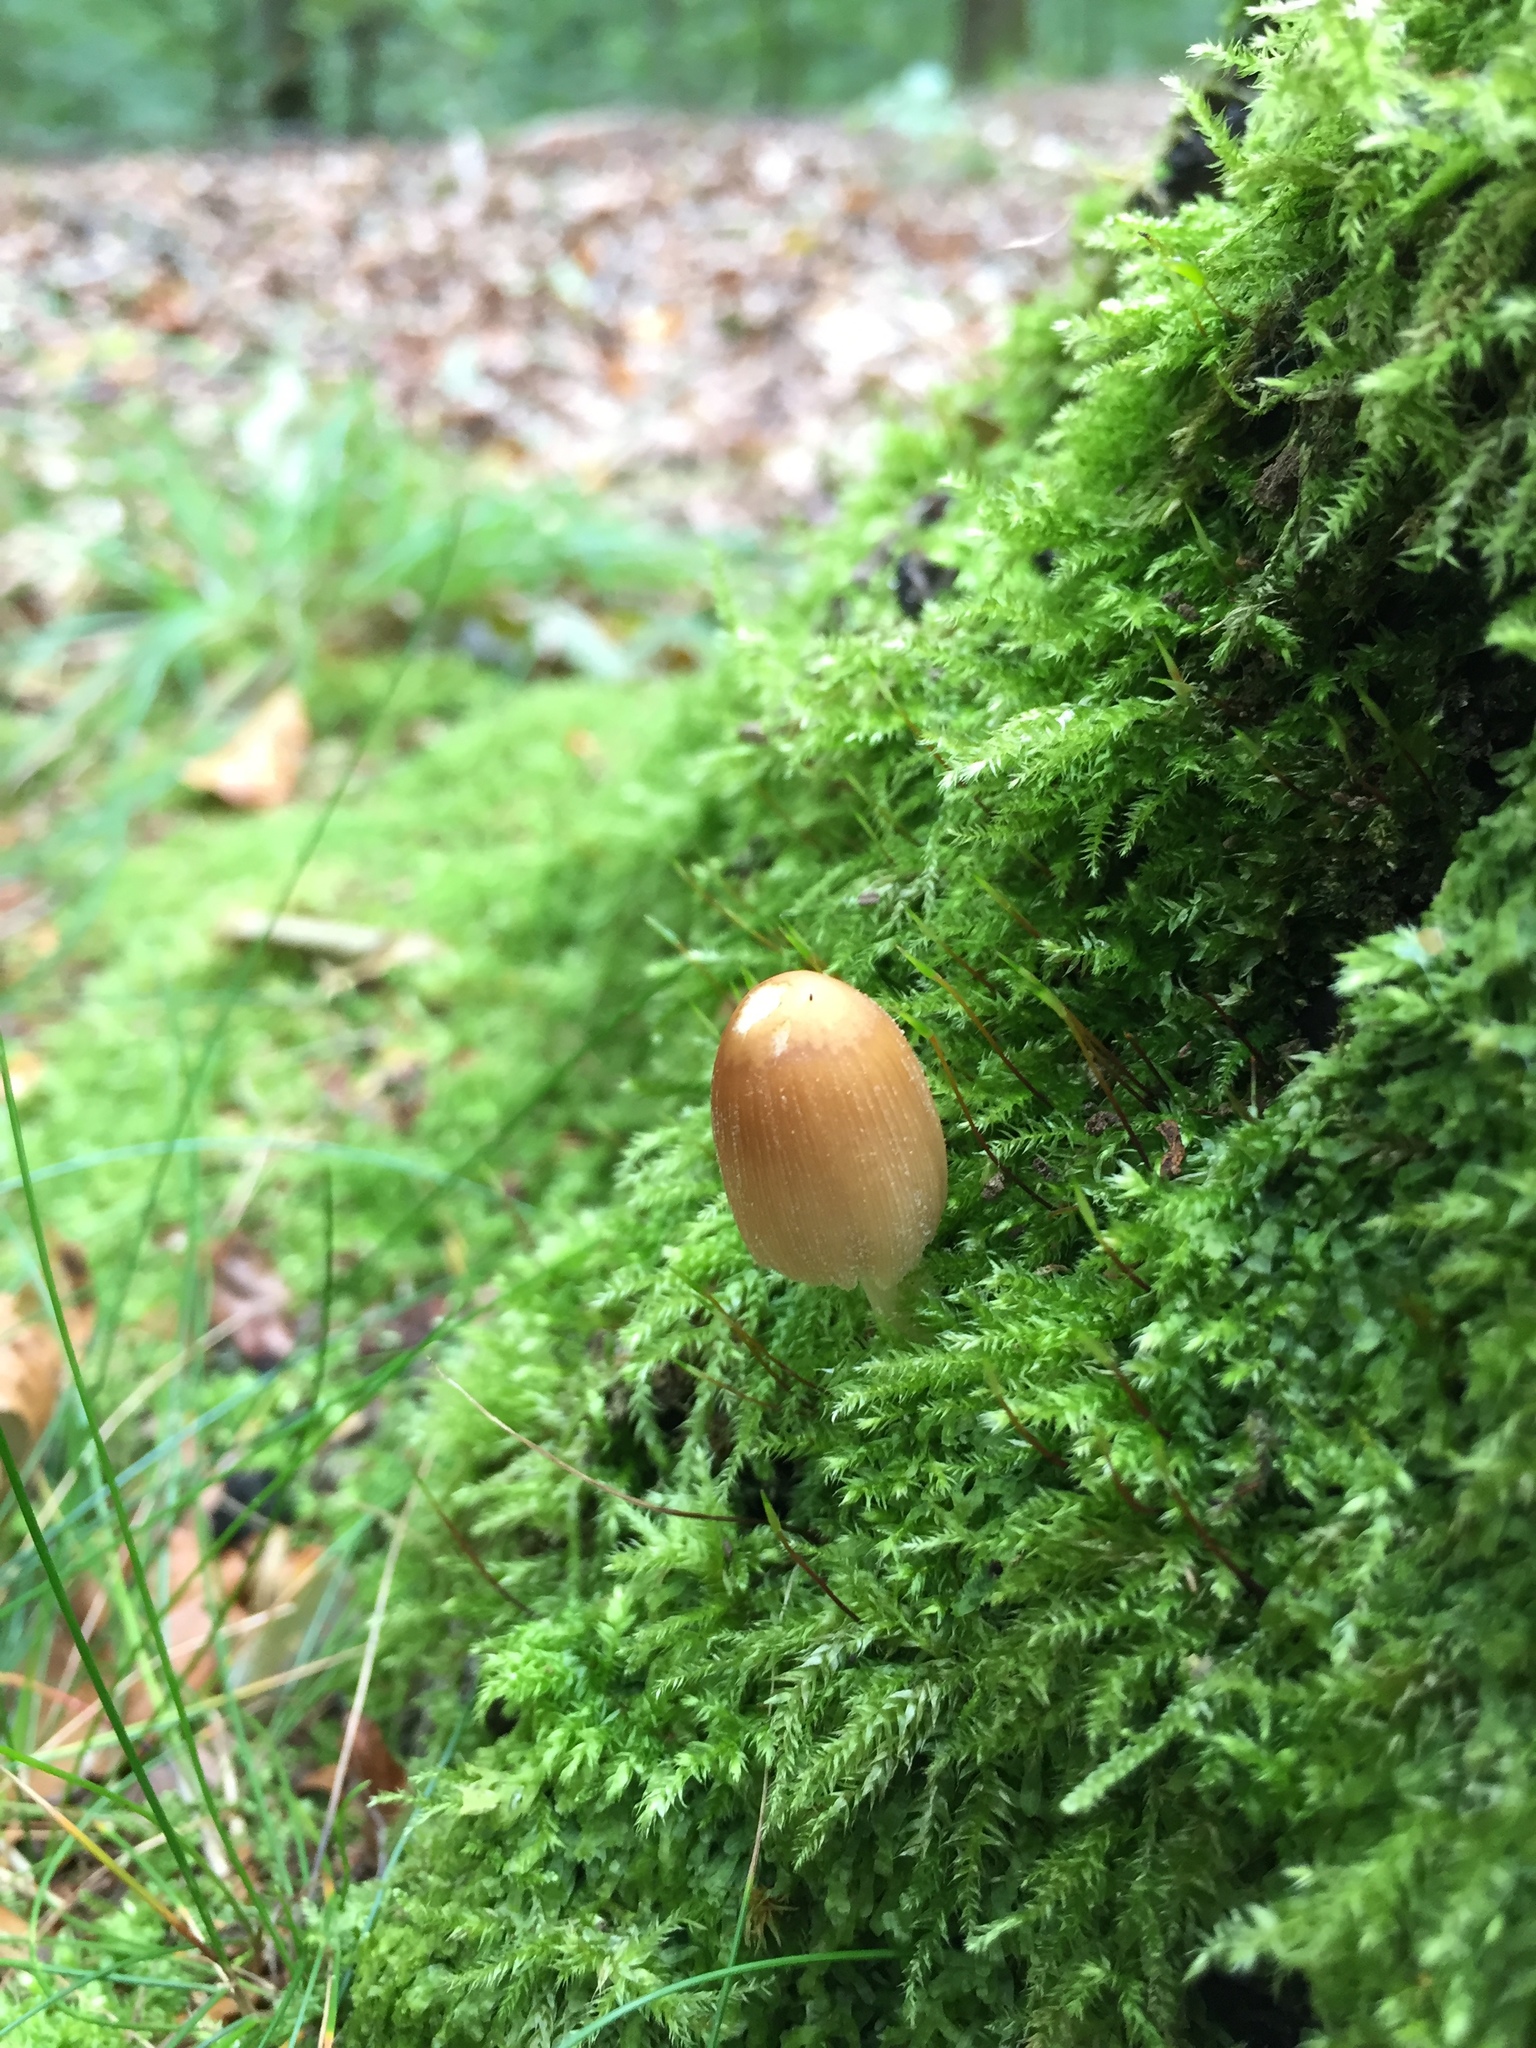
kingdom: Fungi
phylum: Basidiomycota
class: Agaricomycetes
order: Agaricales
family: Psathyrellaceae
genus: Coprinellus
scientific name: Coprinellus micaceus
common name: Glistening ink-cap
